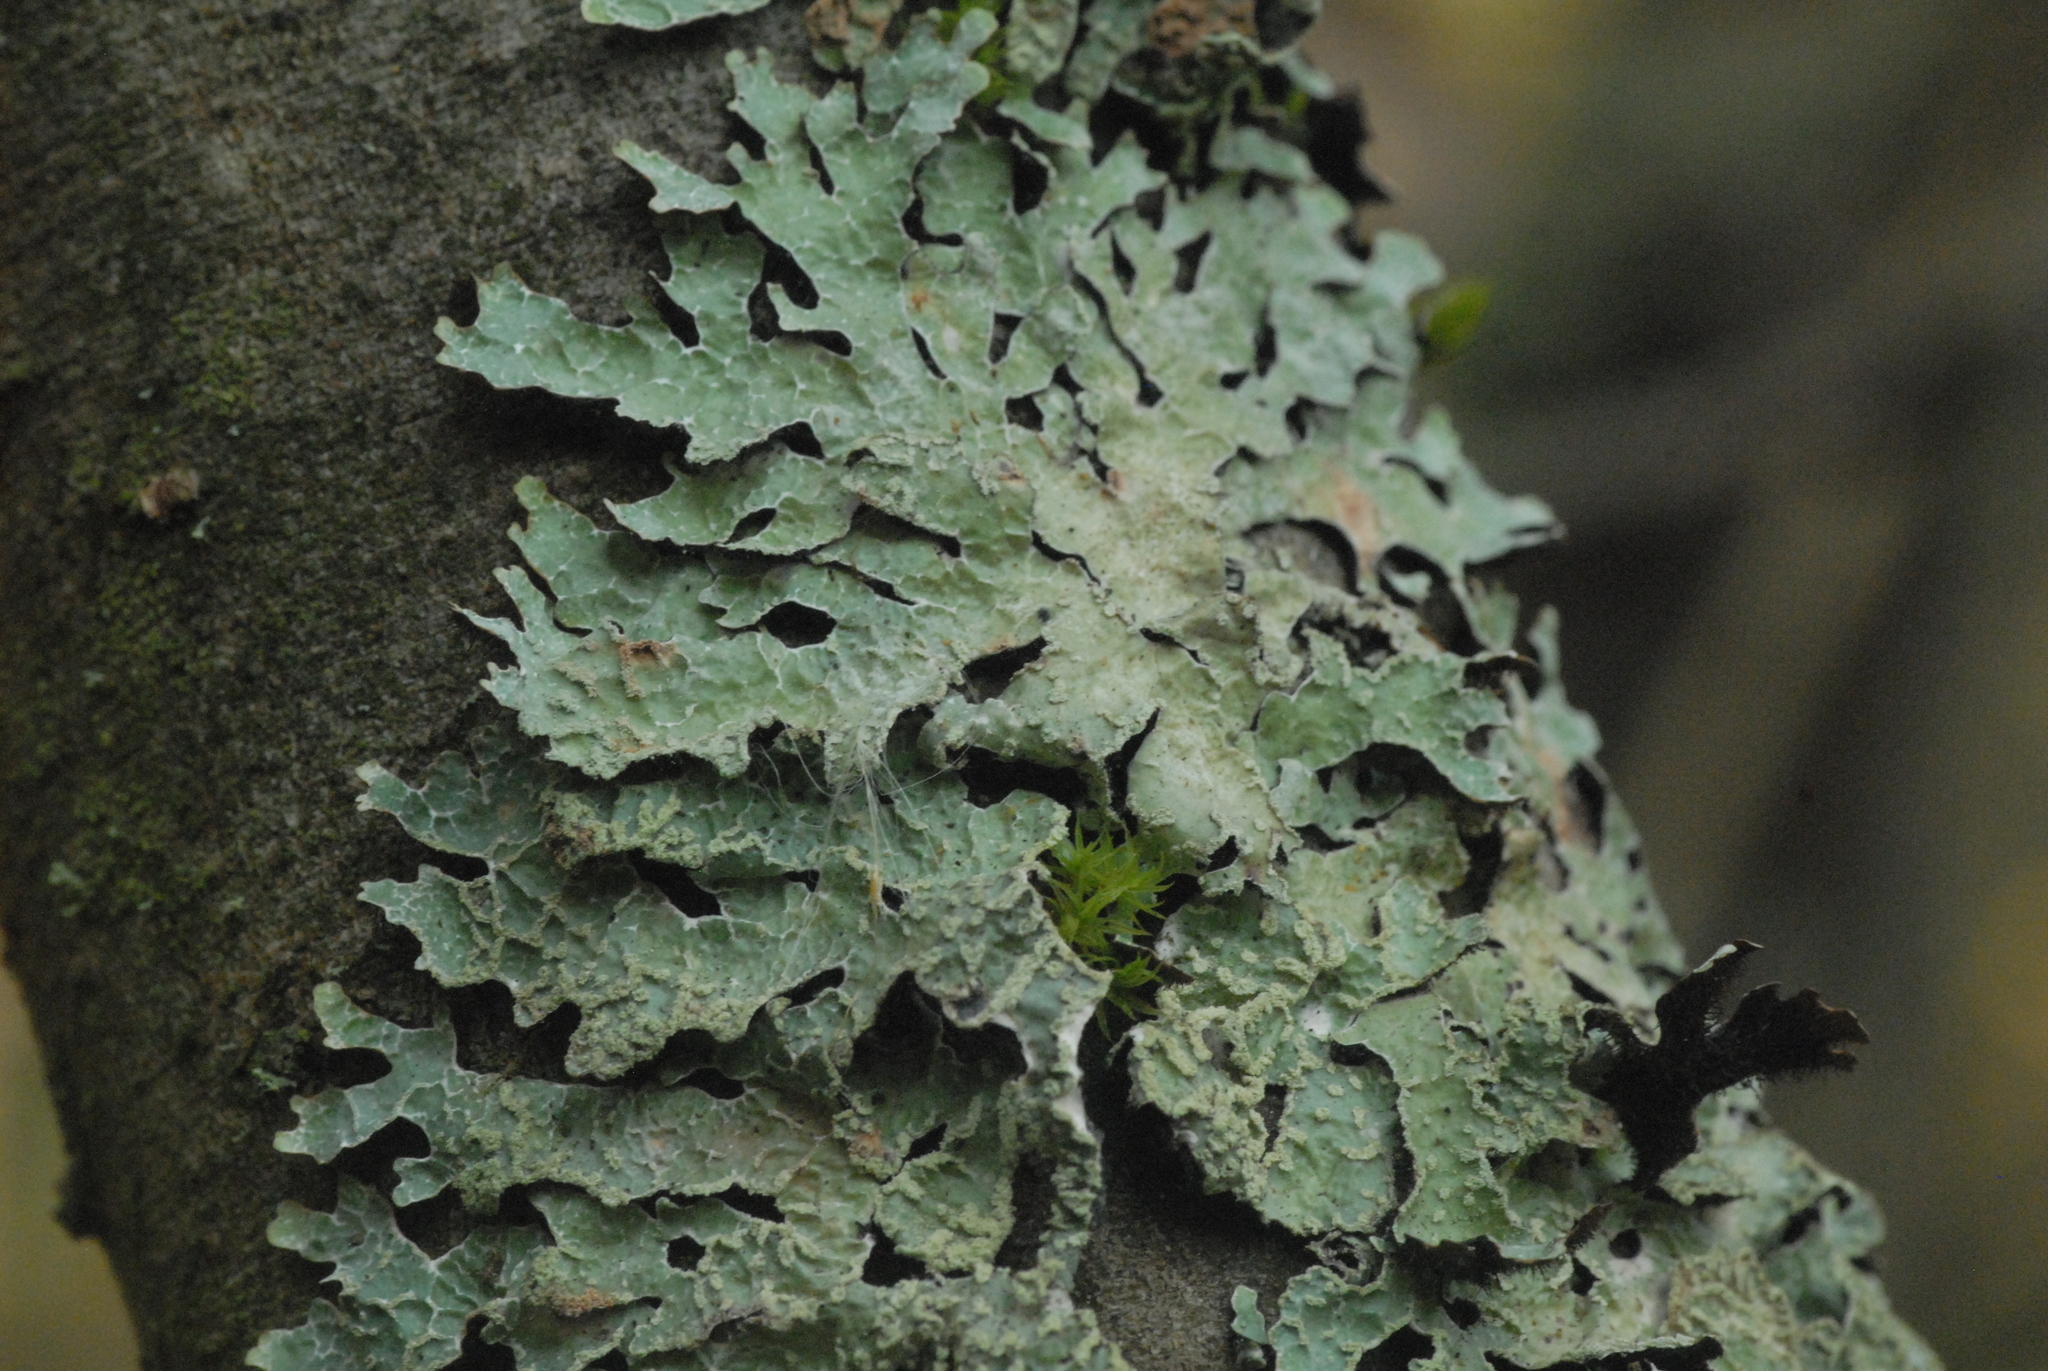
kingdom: Fungi
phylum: Ascomycota
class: Lecanoromycetes
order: Lecanorales
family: Parmeliaceae
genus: Parmelia
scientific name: Parmelia sulcata
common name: Netted shield lichen
